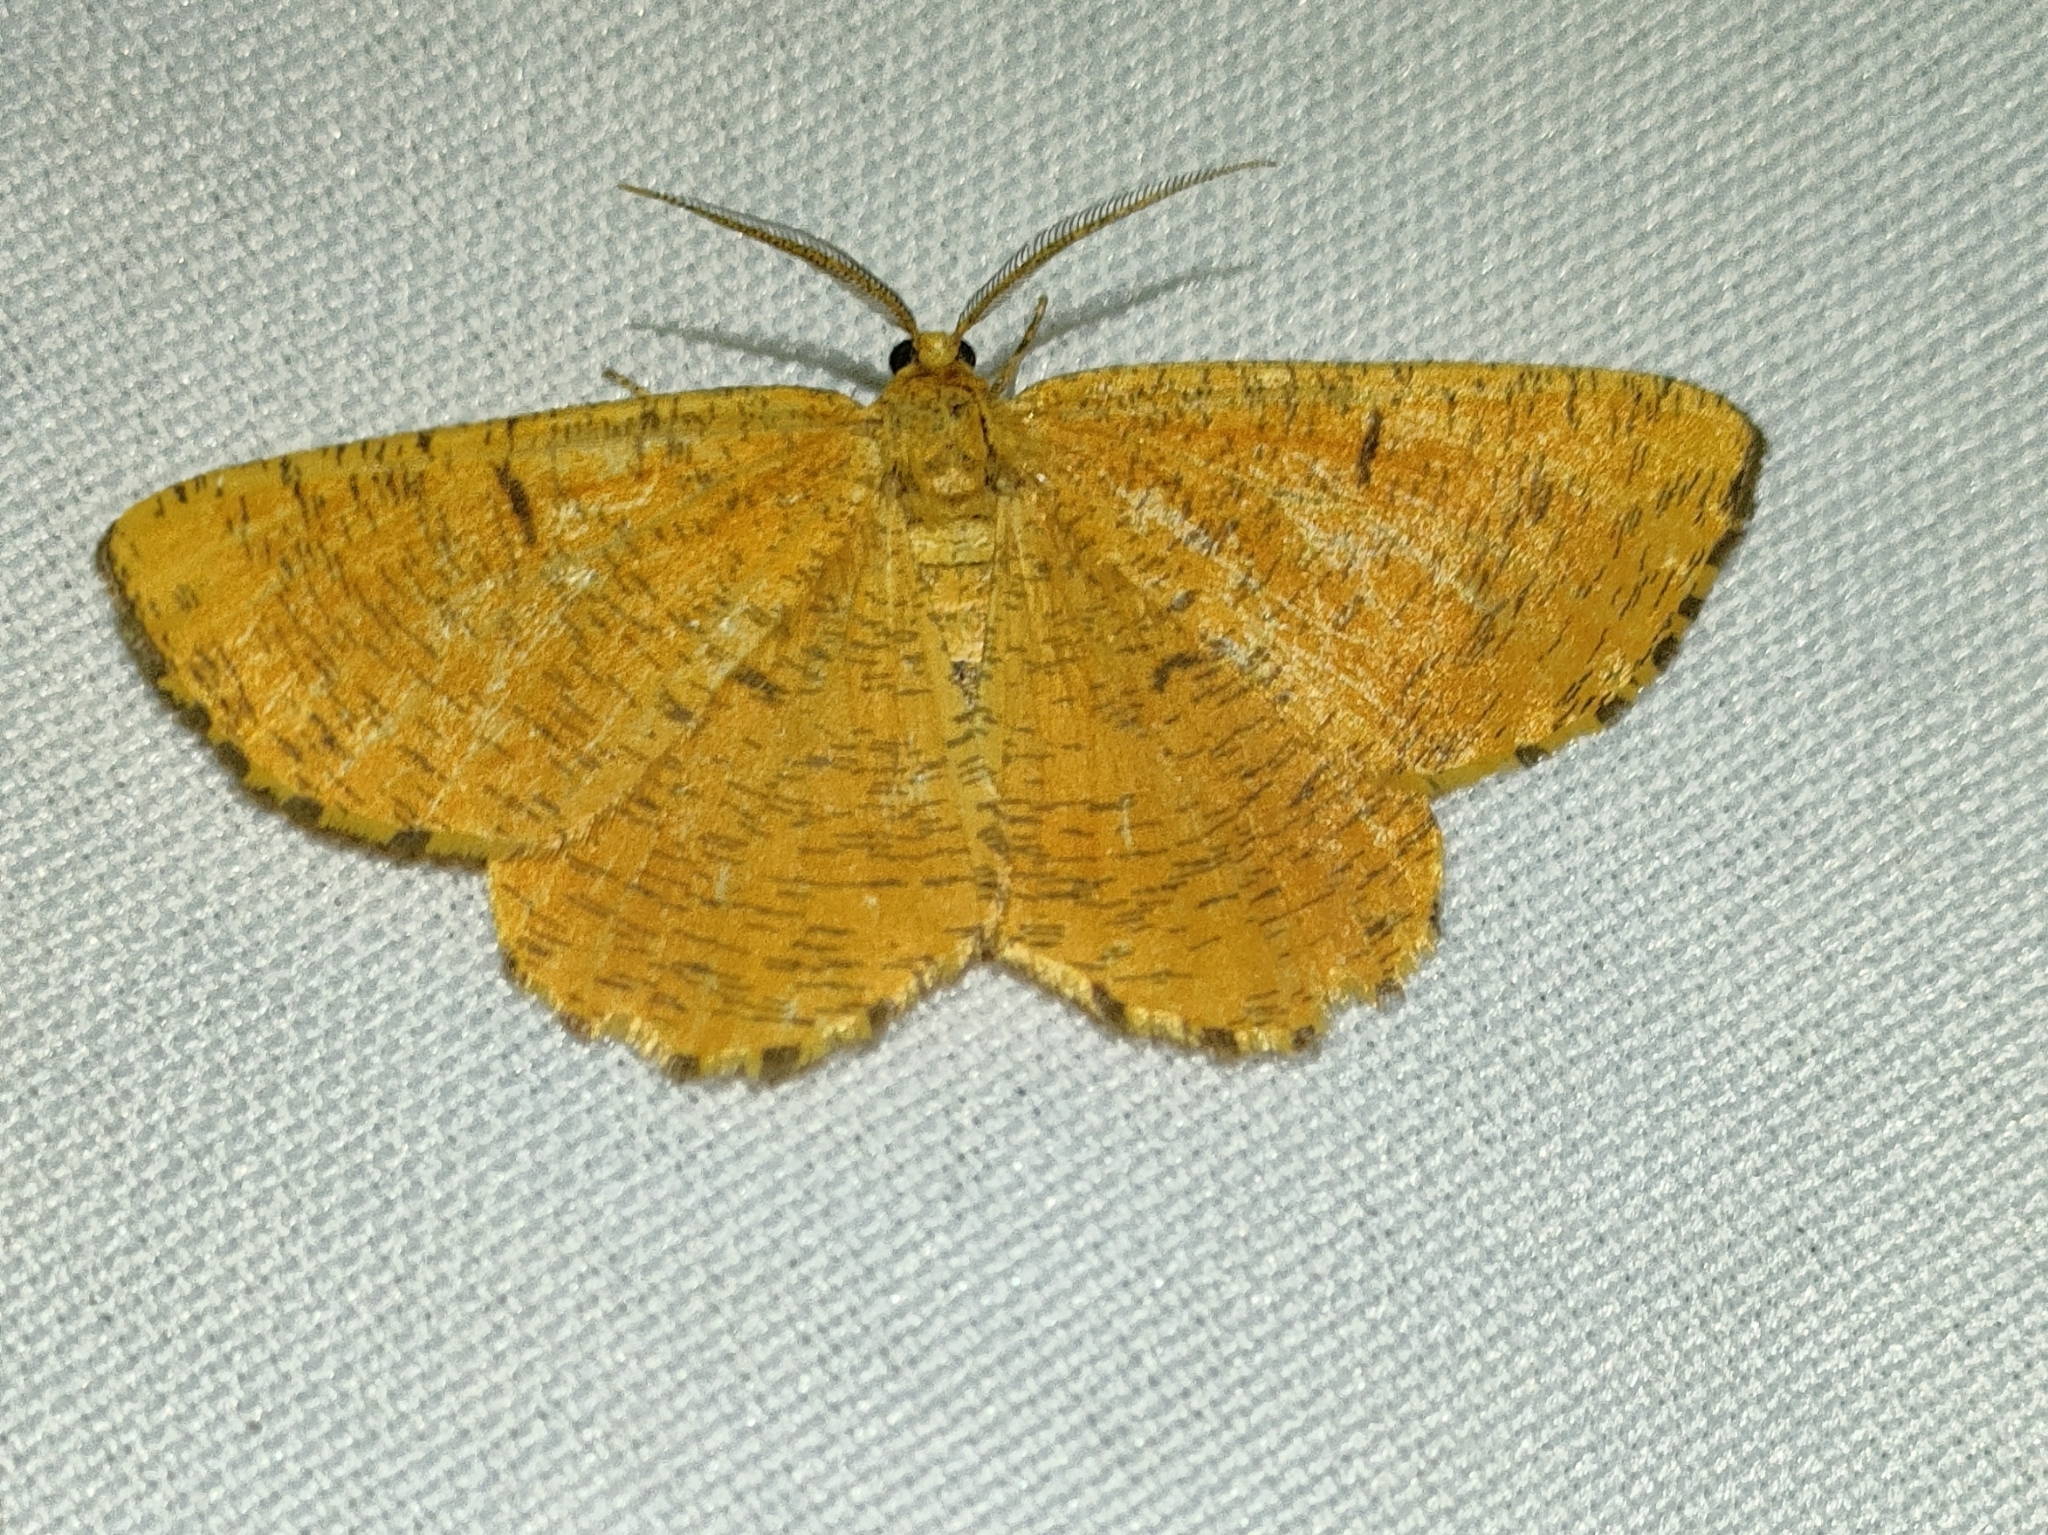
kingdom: Animalia
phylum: Arthropoda
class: Insecta
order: Lepidoptera
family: Geometridae
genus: Angerona
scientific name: Angerona prunaria
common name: Orange moth
